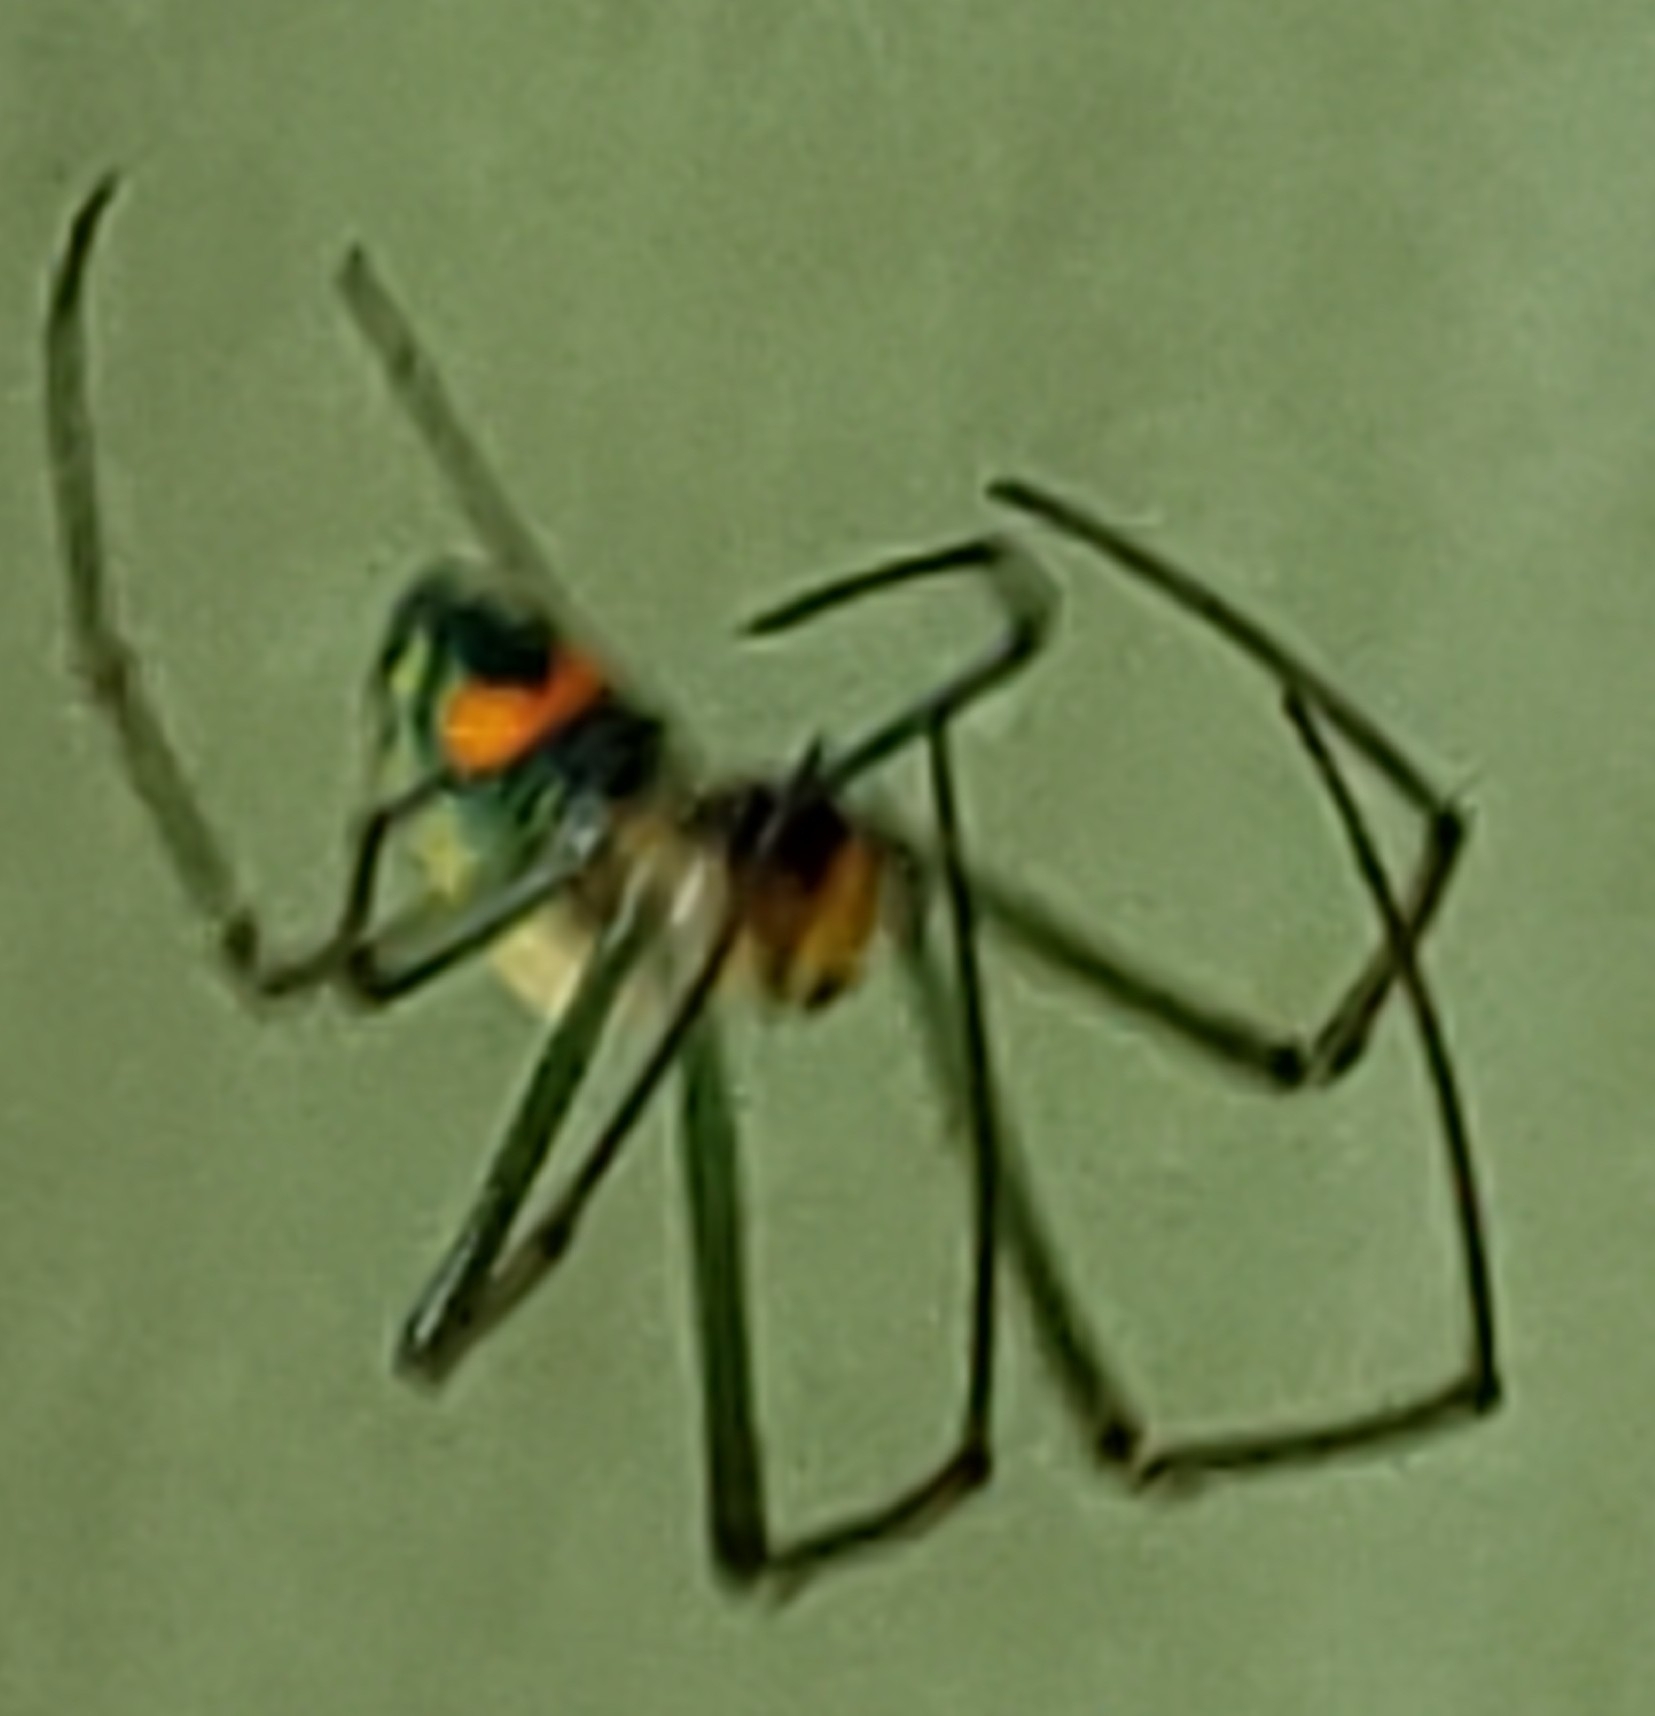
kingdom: Animalia
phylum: Arthropoda
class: Arachnida
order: Araneae
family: Tetragnathidae
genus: Leucauge
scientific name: Leucauge argyrobapta
